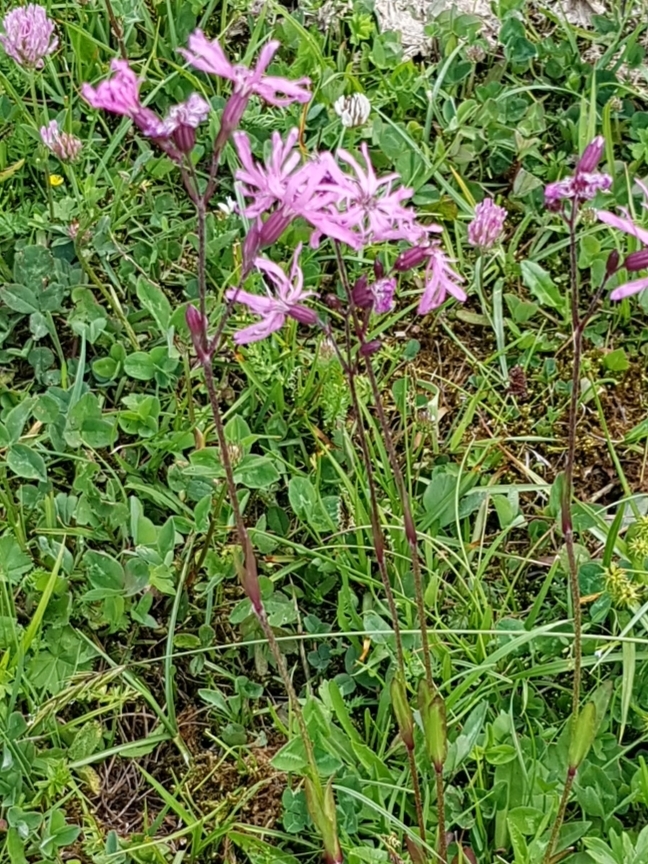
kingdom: Plantae
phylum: Tracheophyta
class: Magnoliopsida
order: Caryophyllales
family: Caryophyllaceae
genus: Silene
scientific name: Silene flos-cuculi
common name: Ragged-robin
